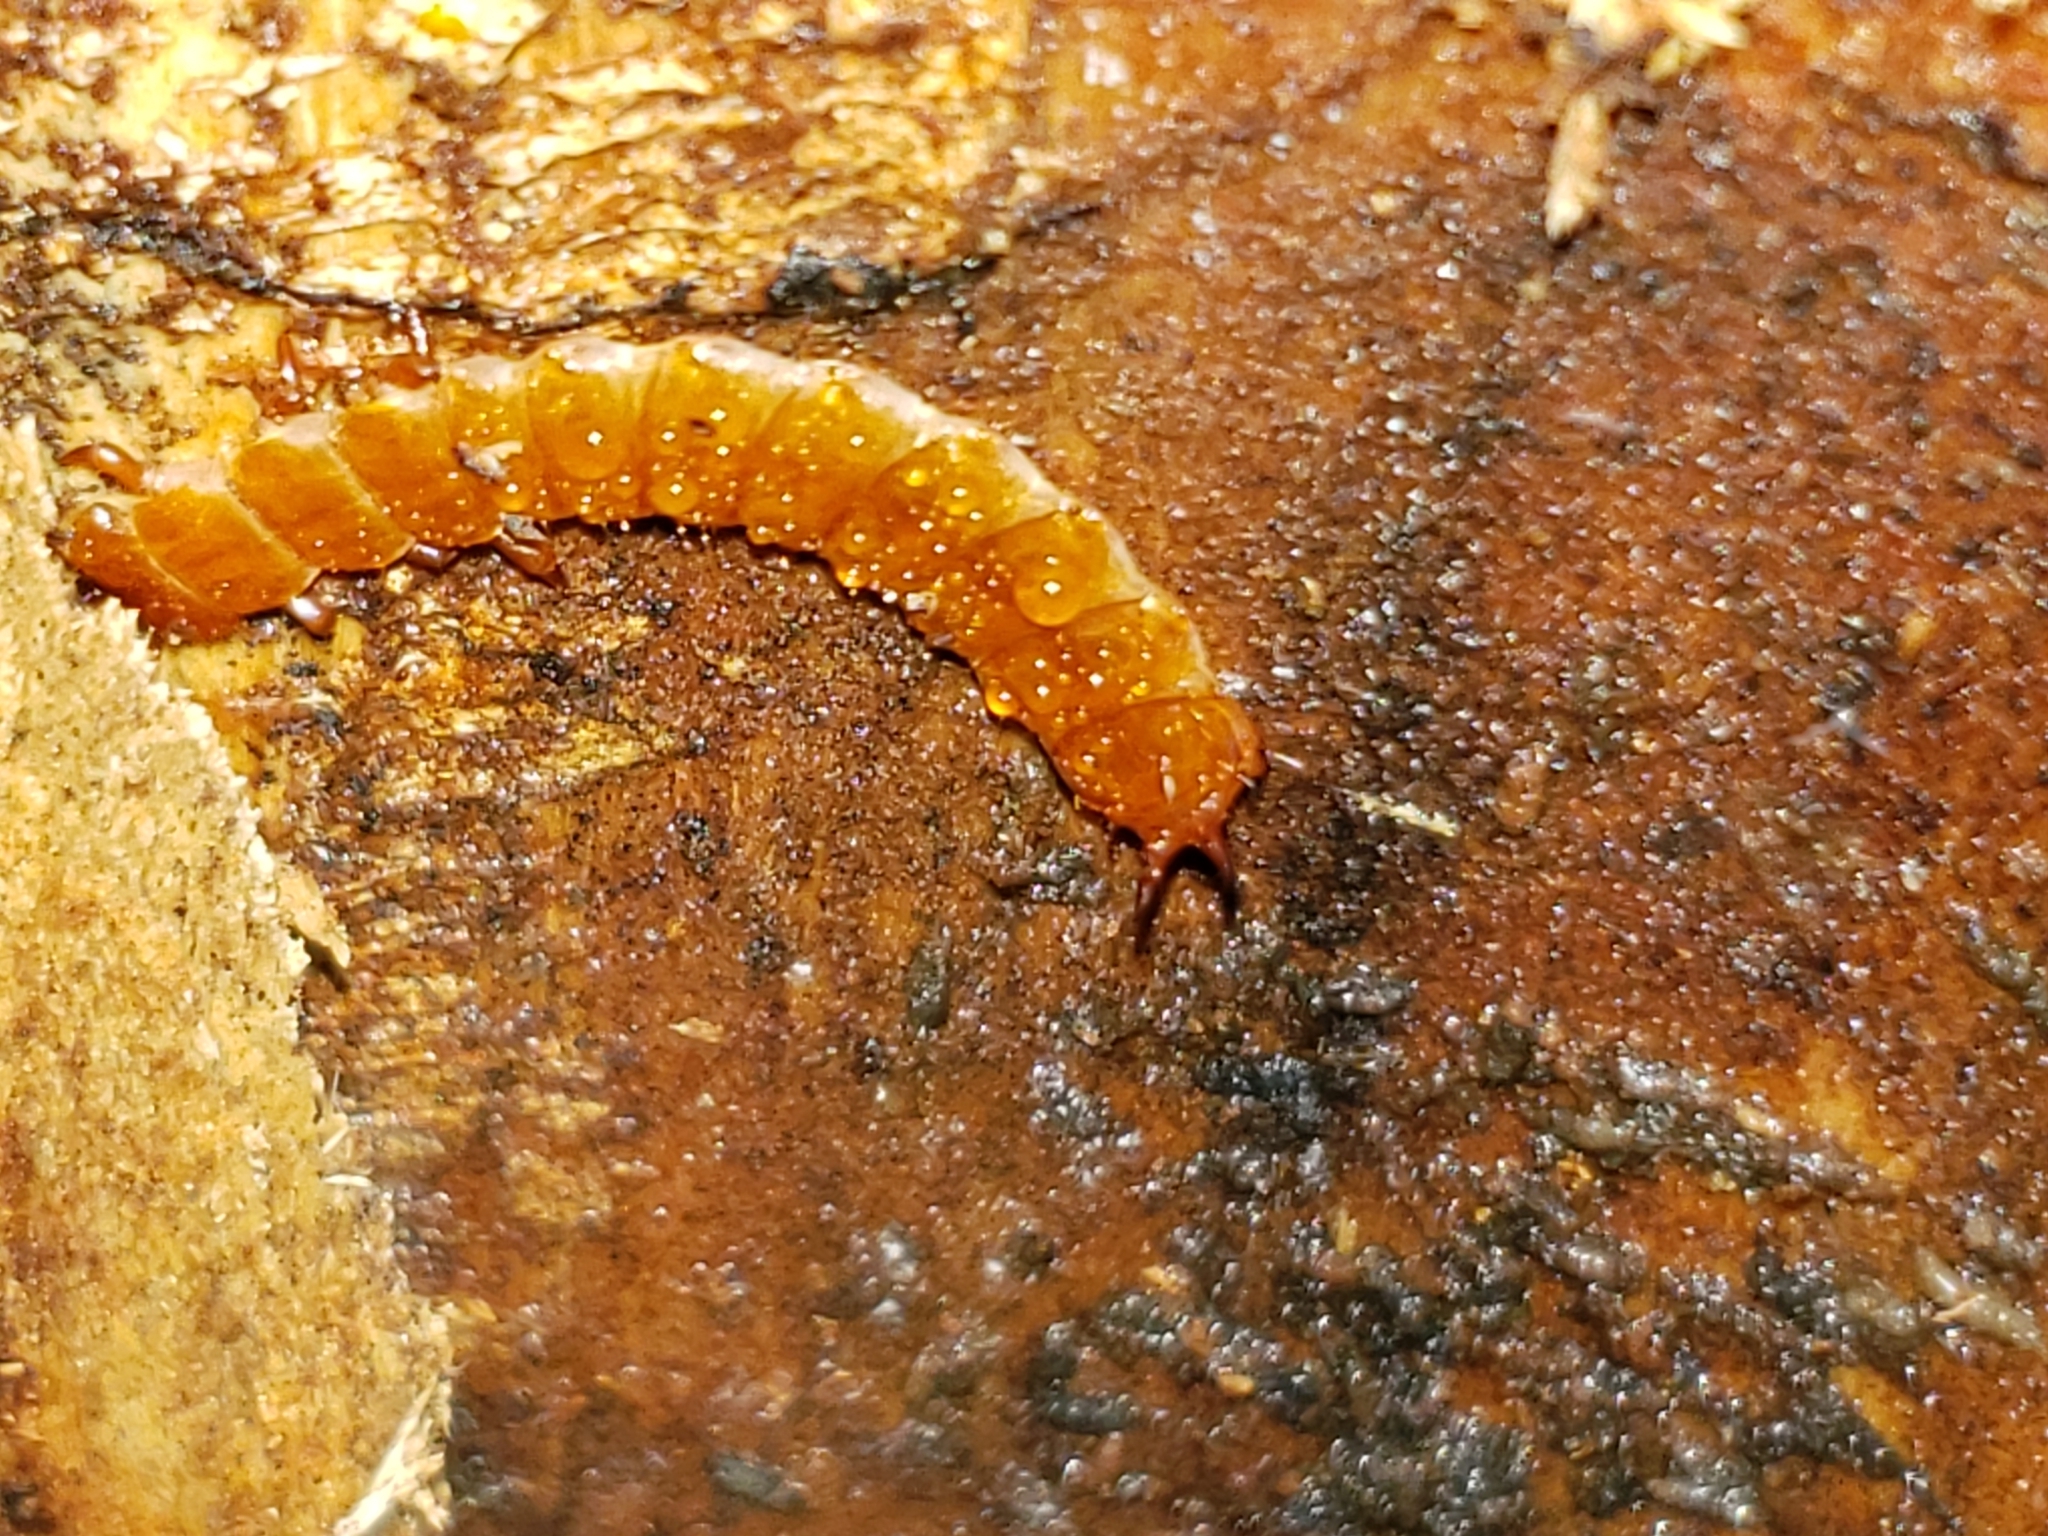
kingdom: Animalia
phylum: Arthropoda
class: Insecta
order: Coleoptera
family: Cucujidae
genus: Cucujus
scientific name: Cucujus clavipes
